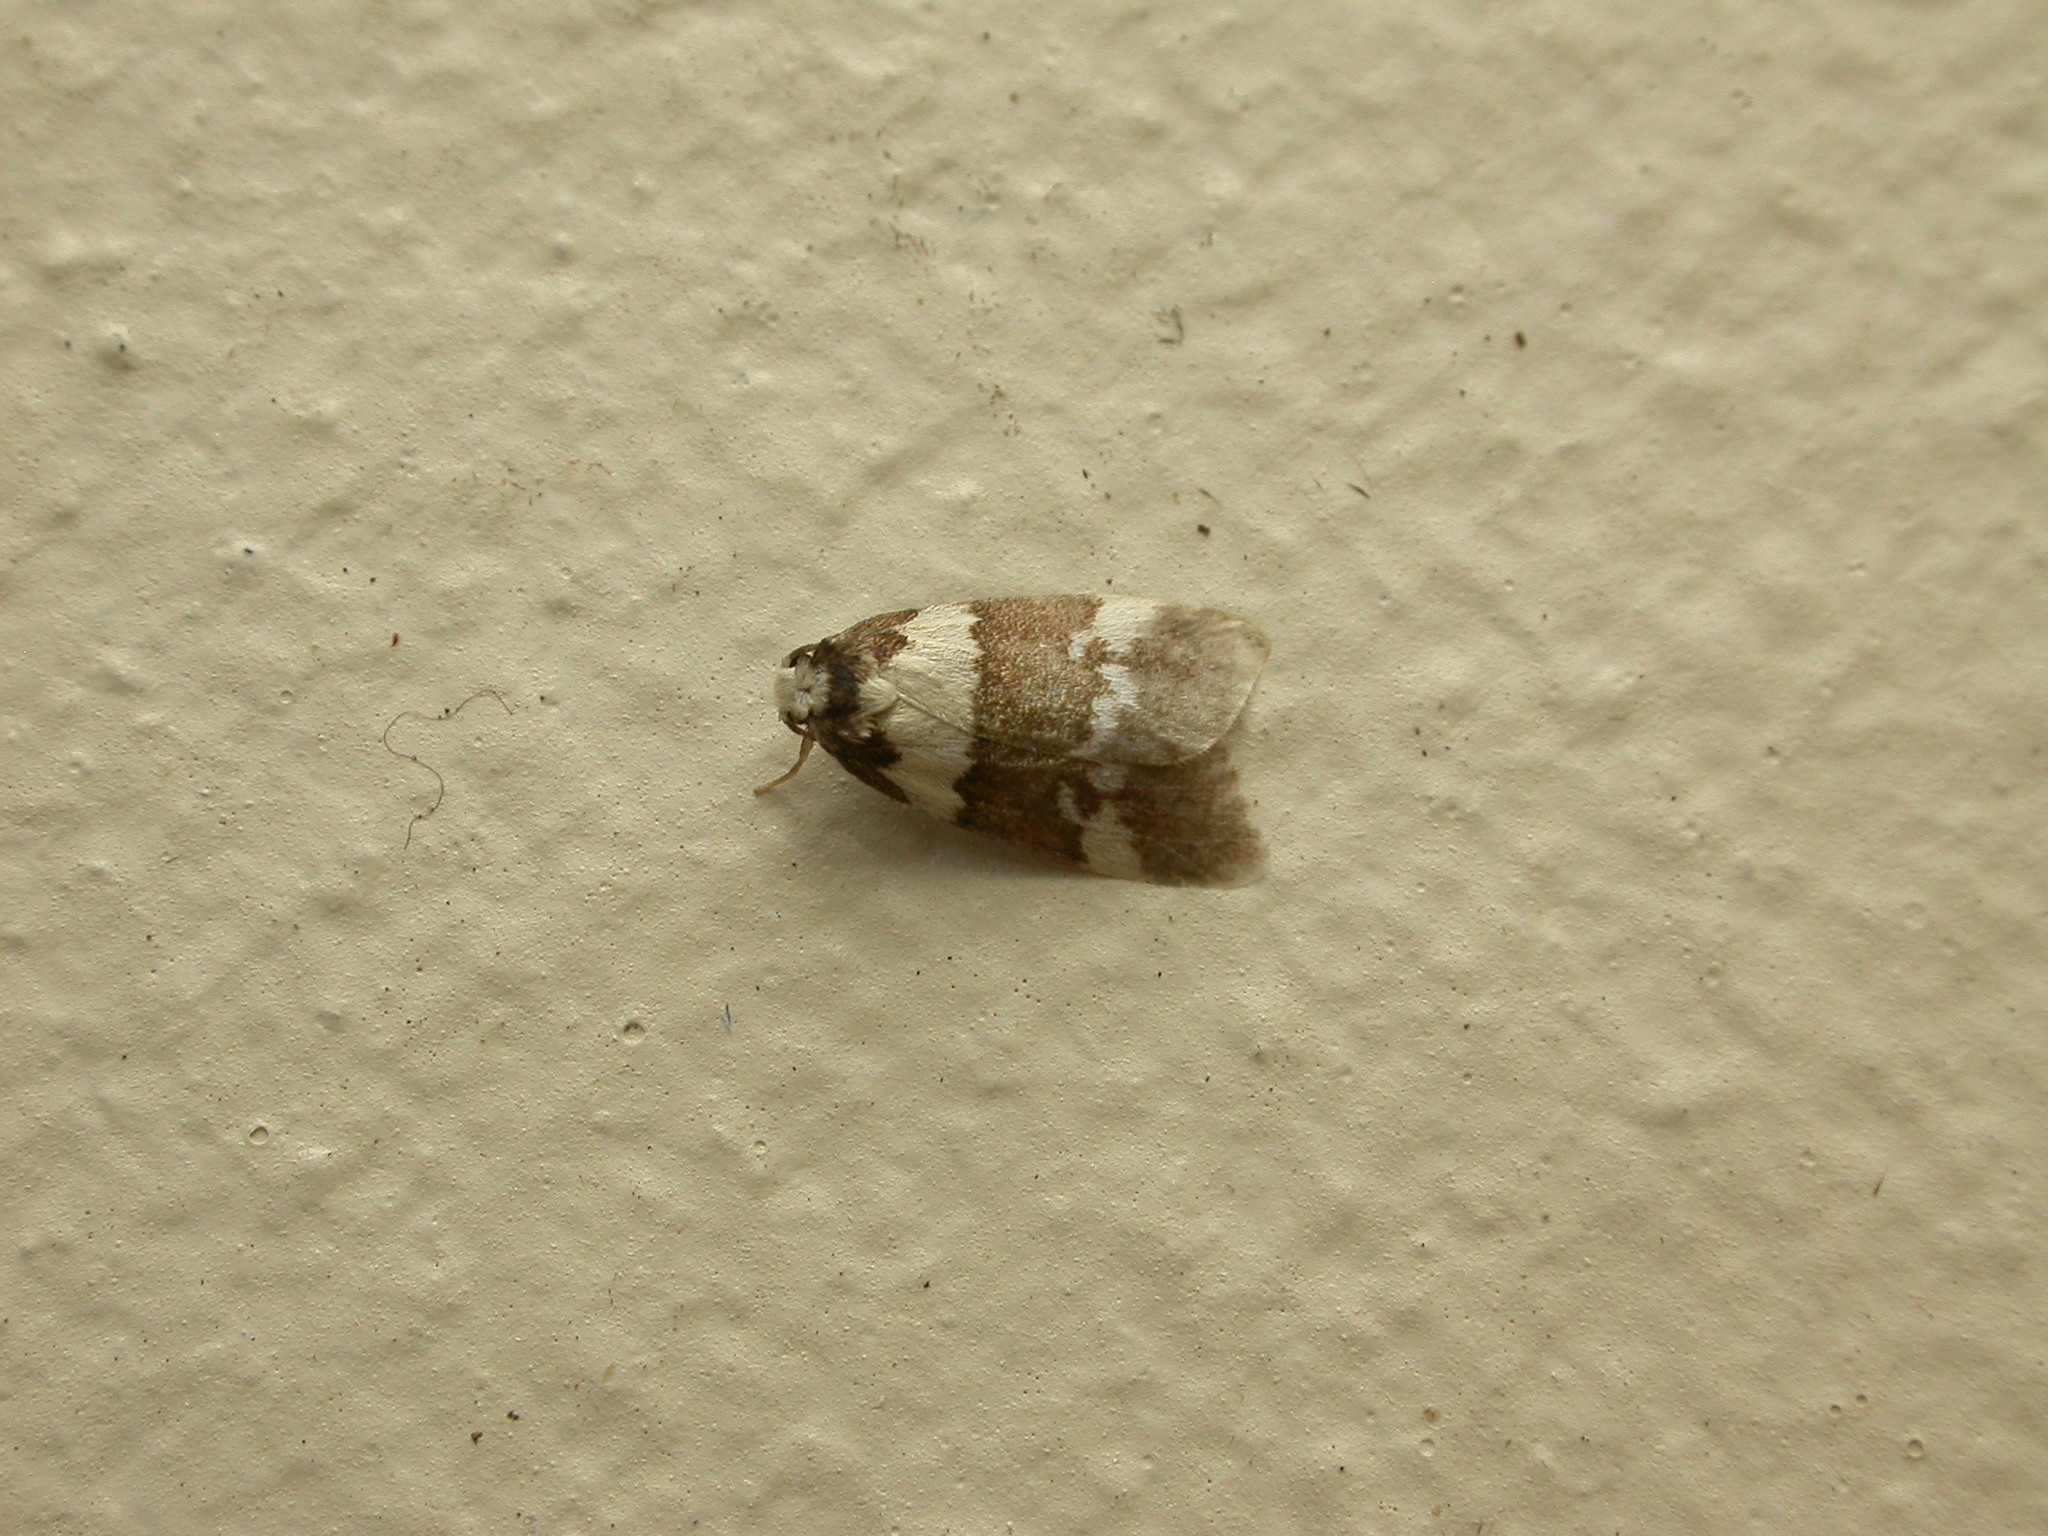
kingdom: Animalia
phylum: Arthropoda
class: Insecta
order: Lepidoptera
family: Erebidae
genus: Halone
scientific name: Halone sejuncta
